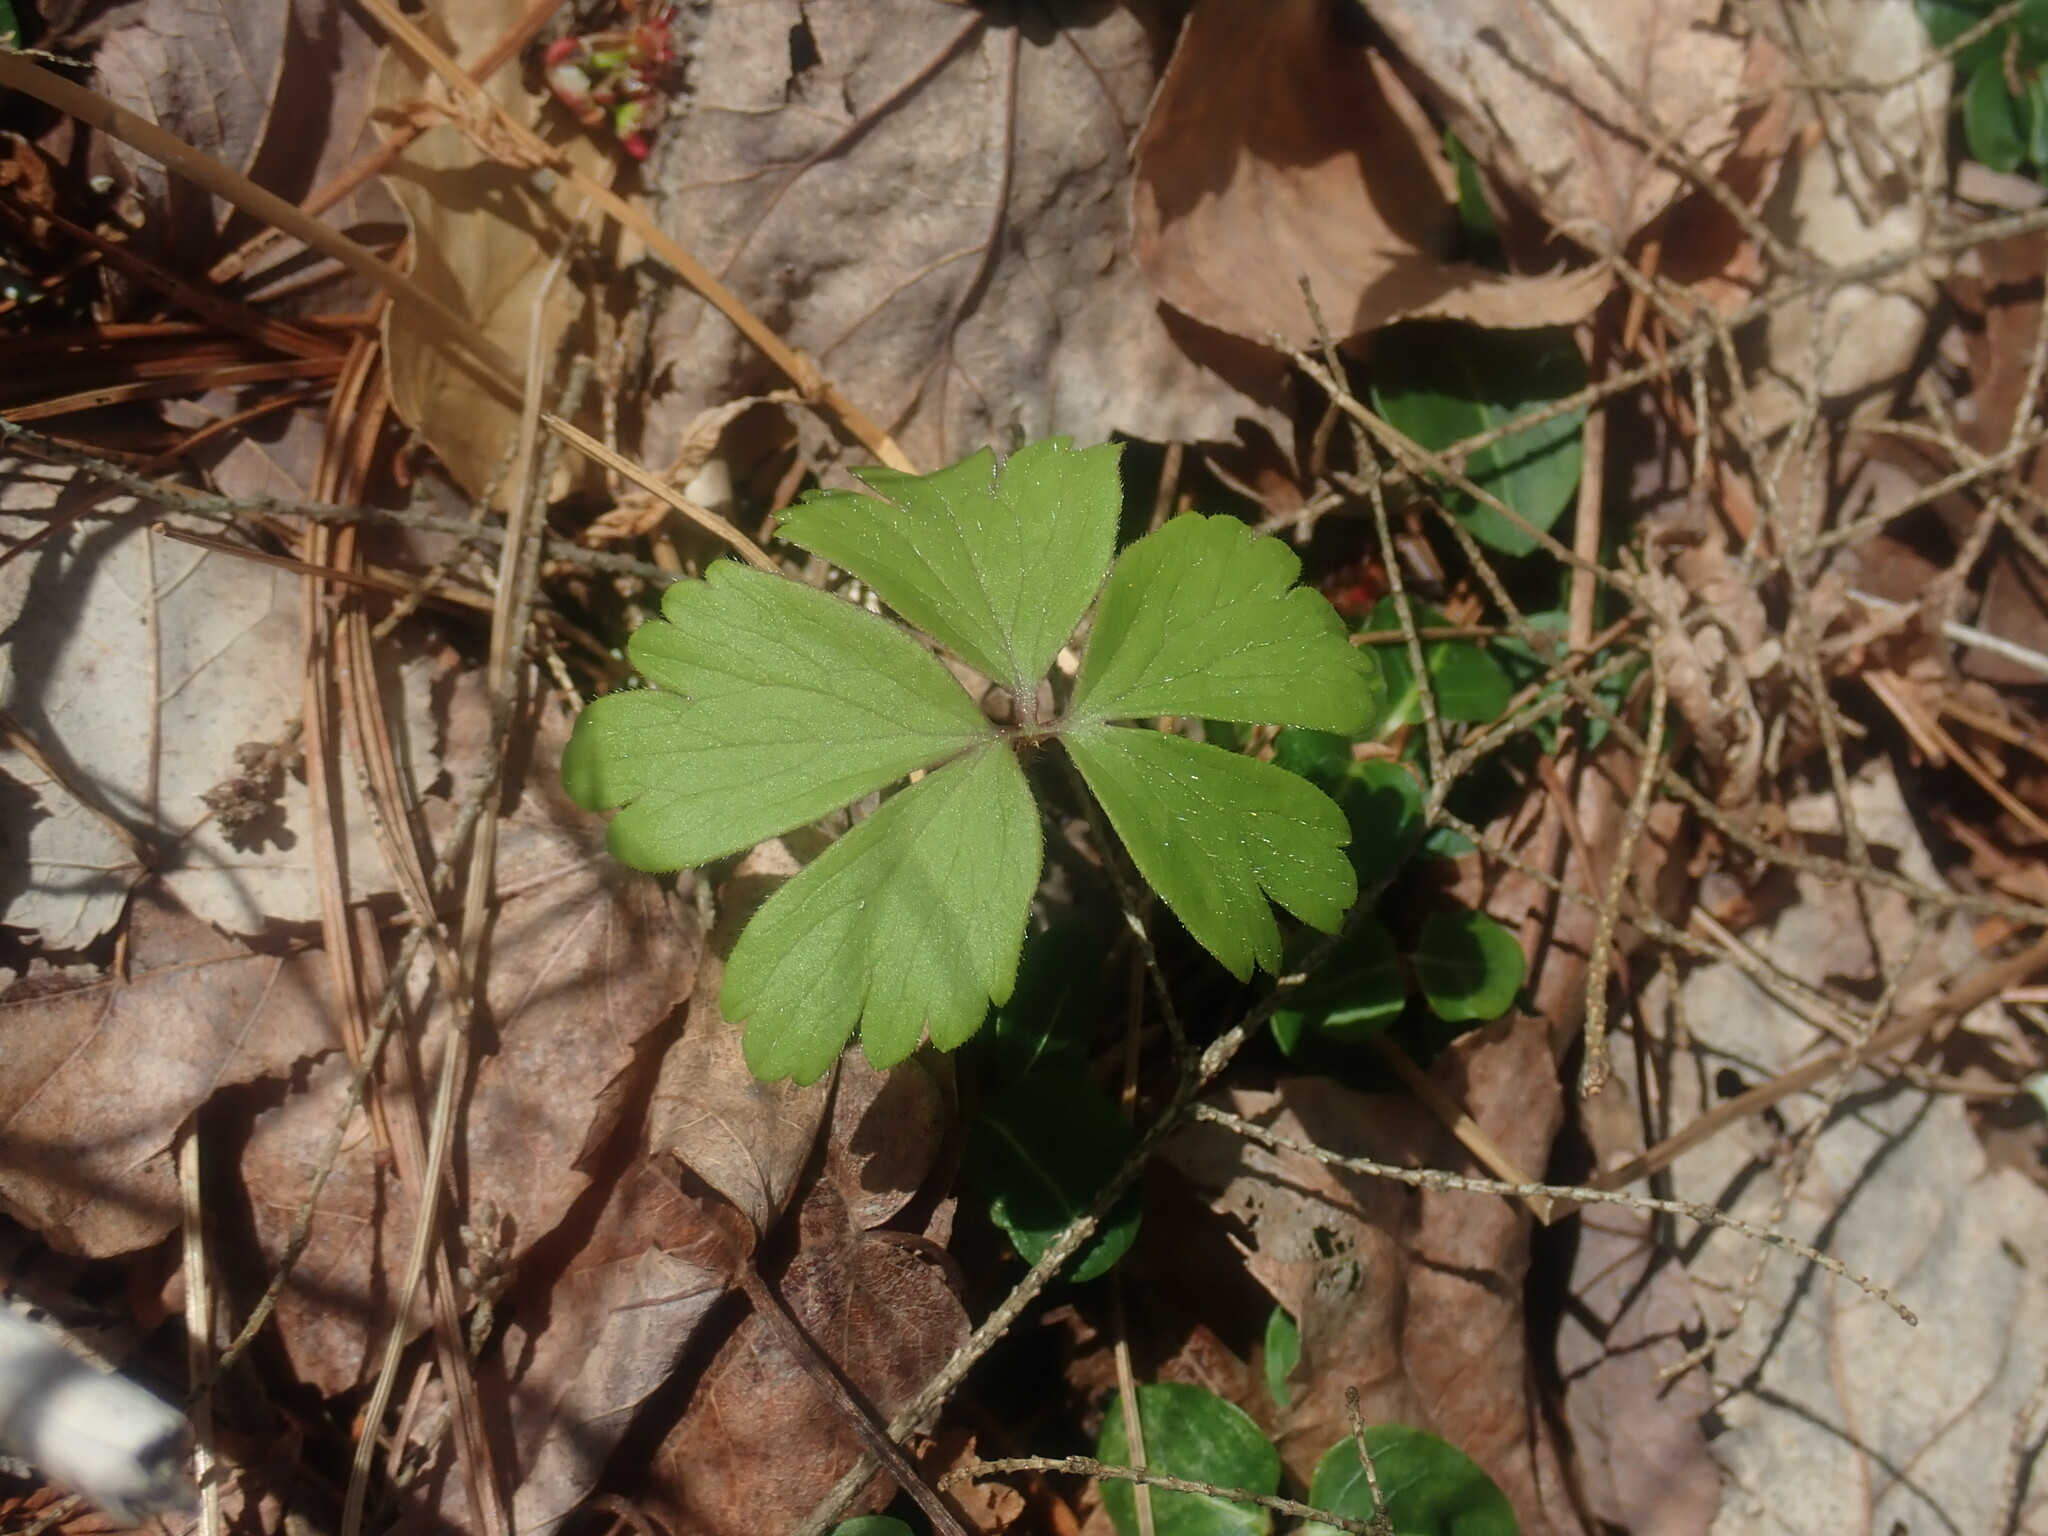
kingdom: Plantae
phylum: Tracheophyta
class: Magnoliopsida
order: Ranunculales
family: Ranunculaceae
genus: Anemone
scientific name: Anemone quinquefolia
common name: Wood anemone
